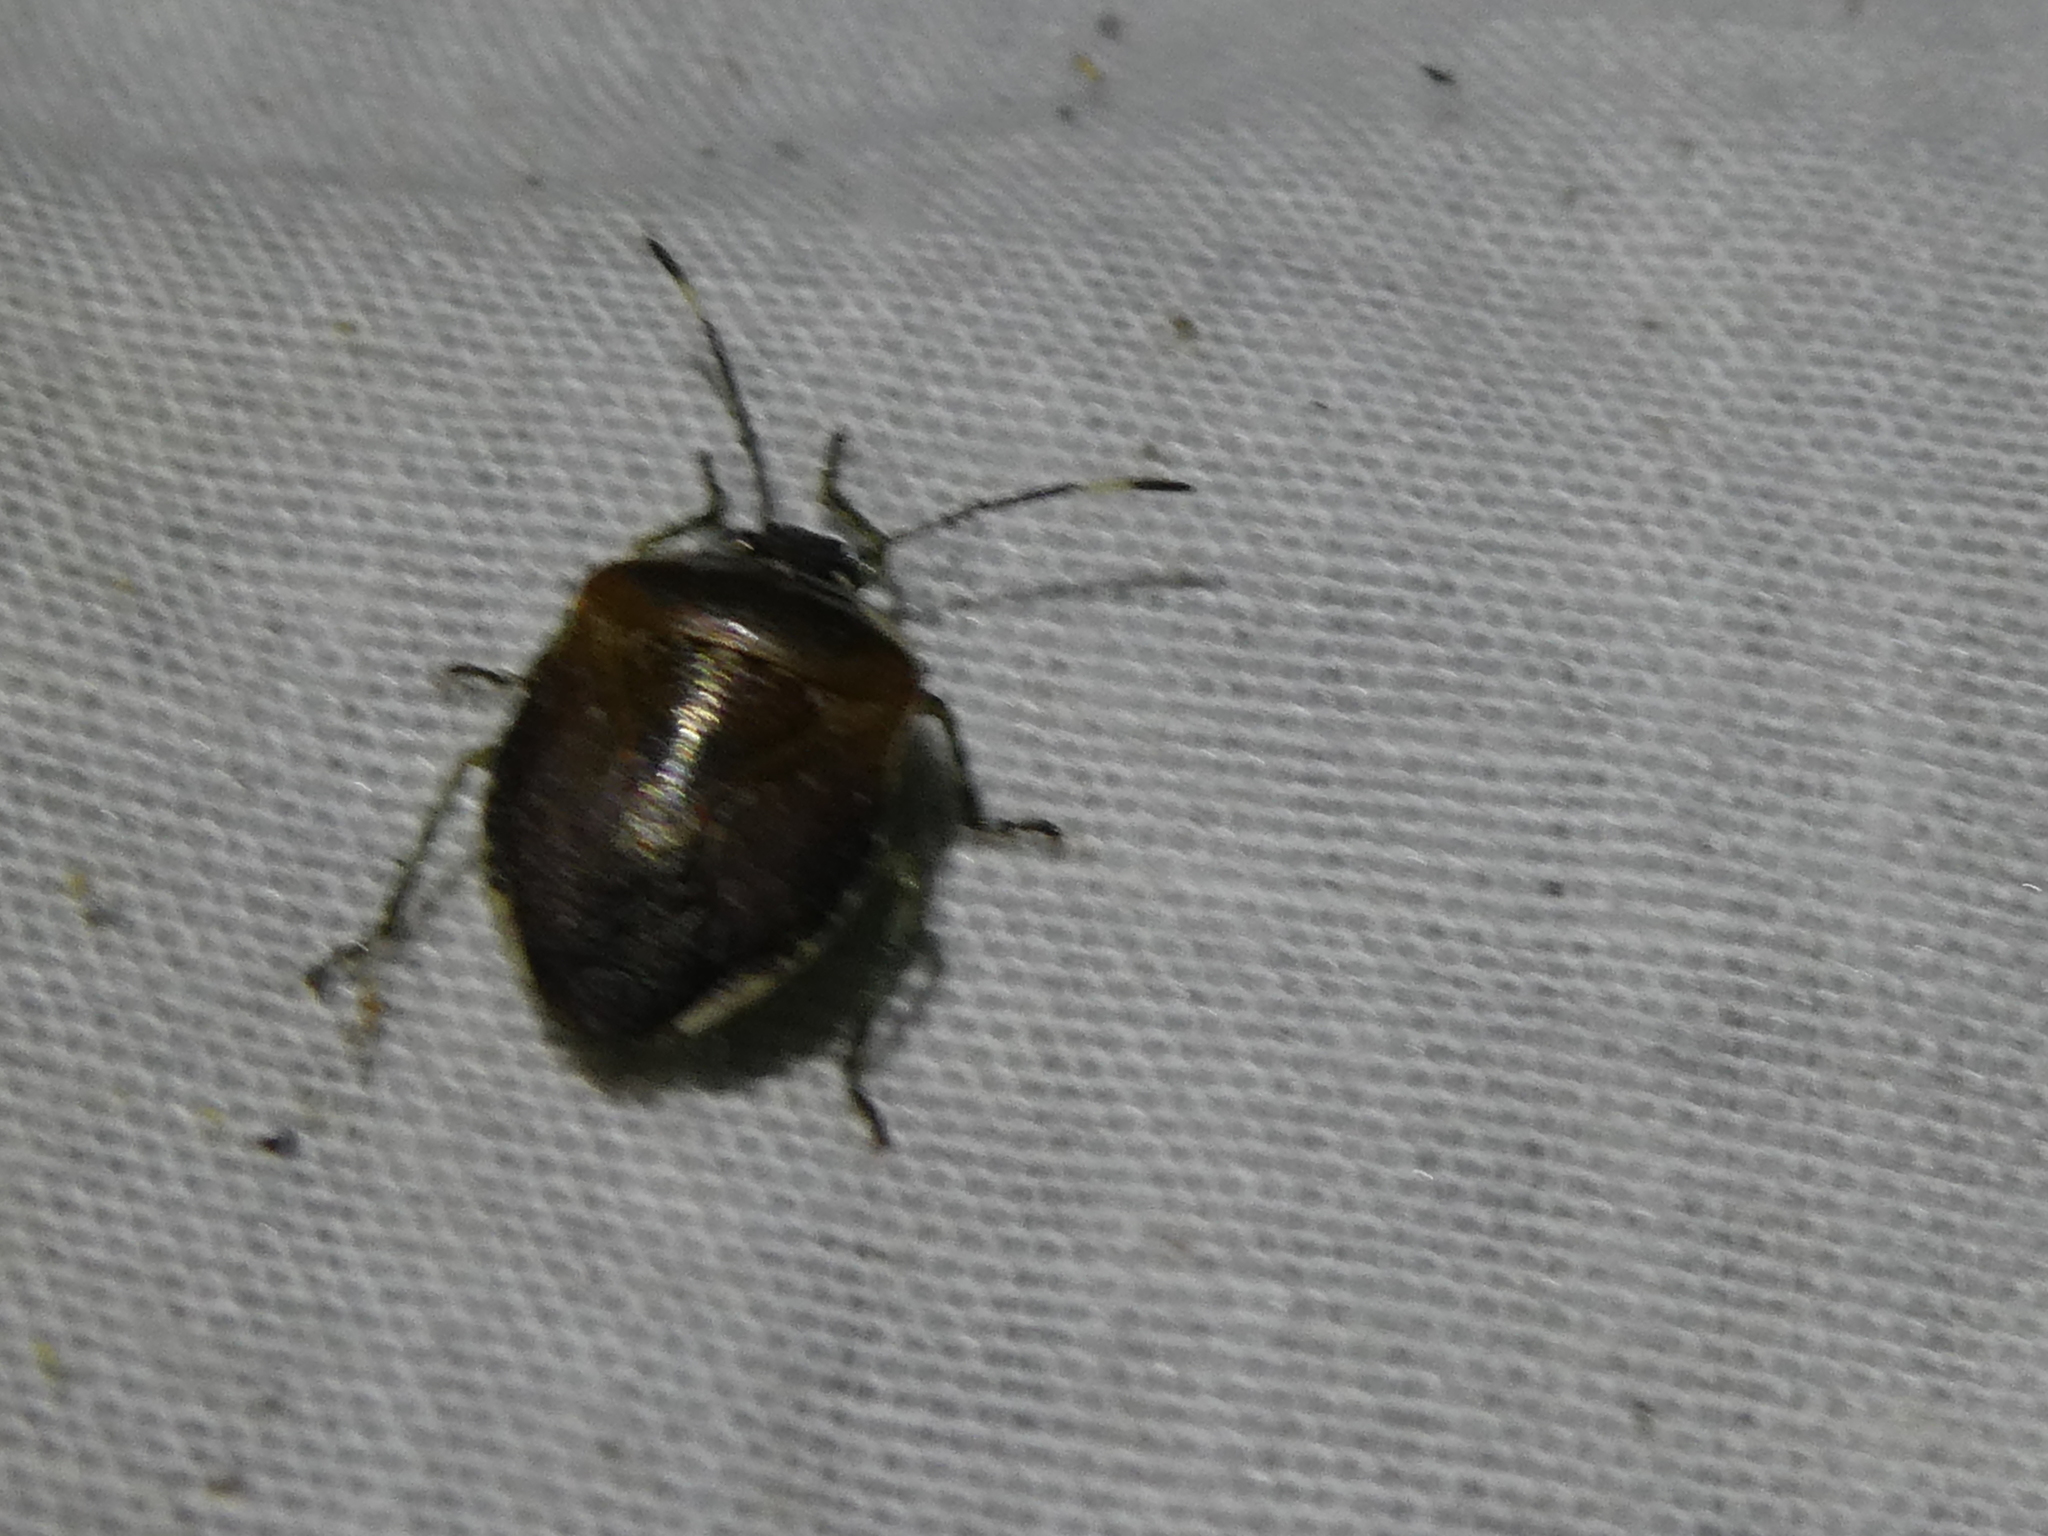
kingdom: Animalia
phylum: Arthropoda
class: Insecta
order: Hemiptera
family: Pentatomidae
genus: Monteithiella
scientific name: Monteithiella
